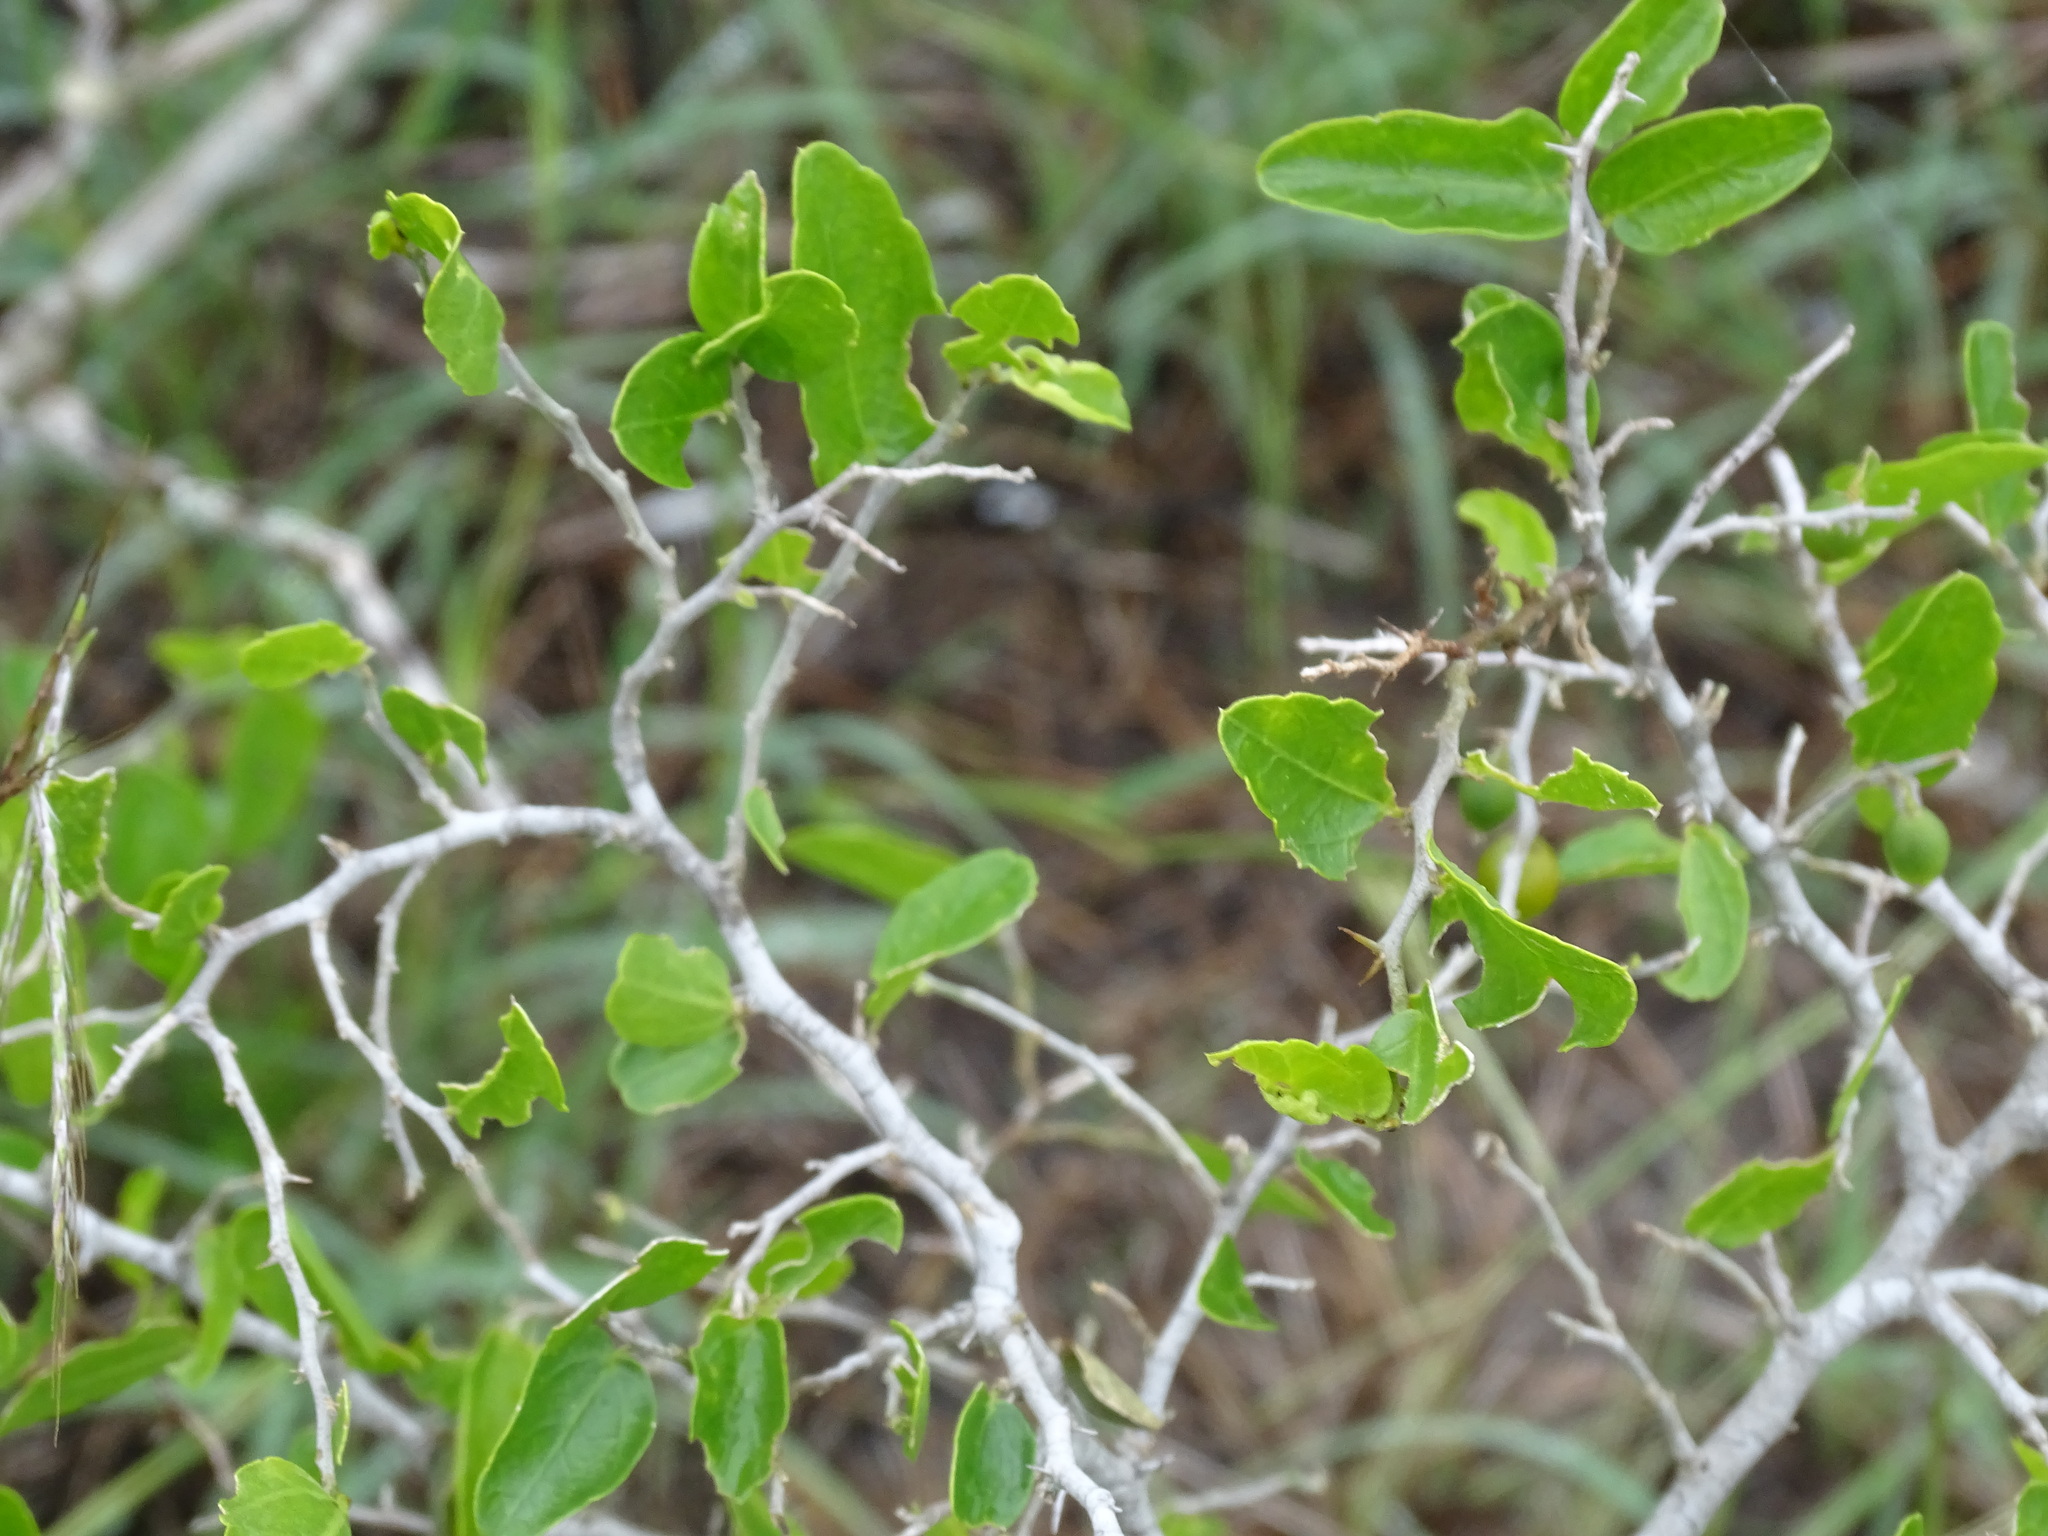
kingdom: Plantae
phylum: Tracheophyta
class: Magnoliopsida
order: Rosales
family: Cannabaceae
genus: Celtis
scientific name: Celtis pallida
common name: Desert hackberry
